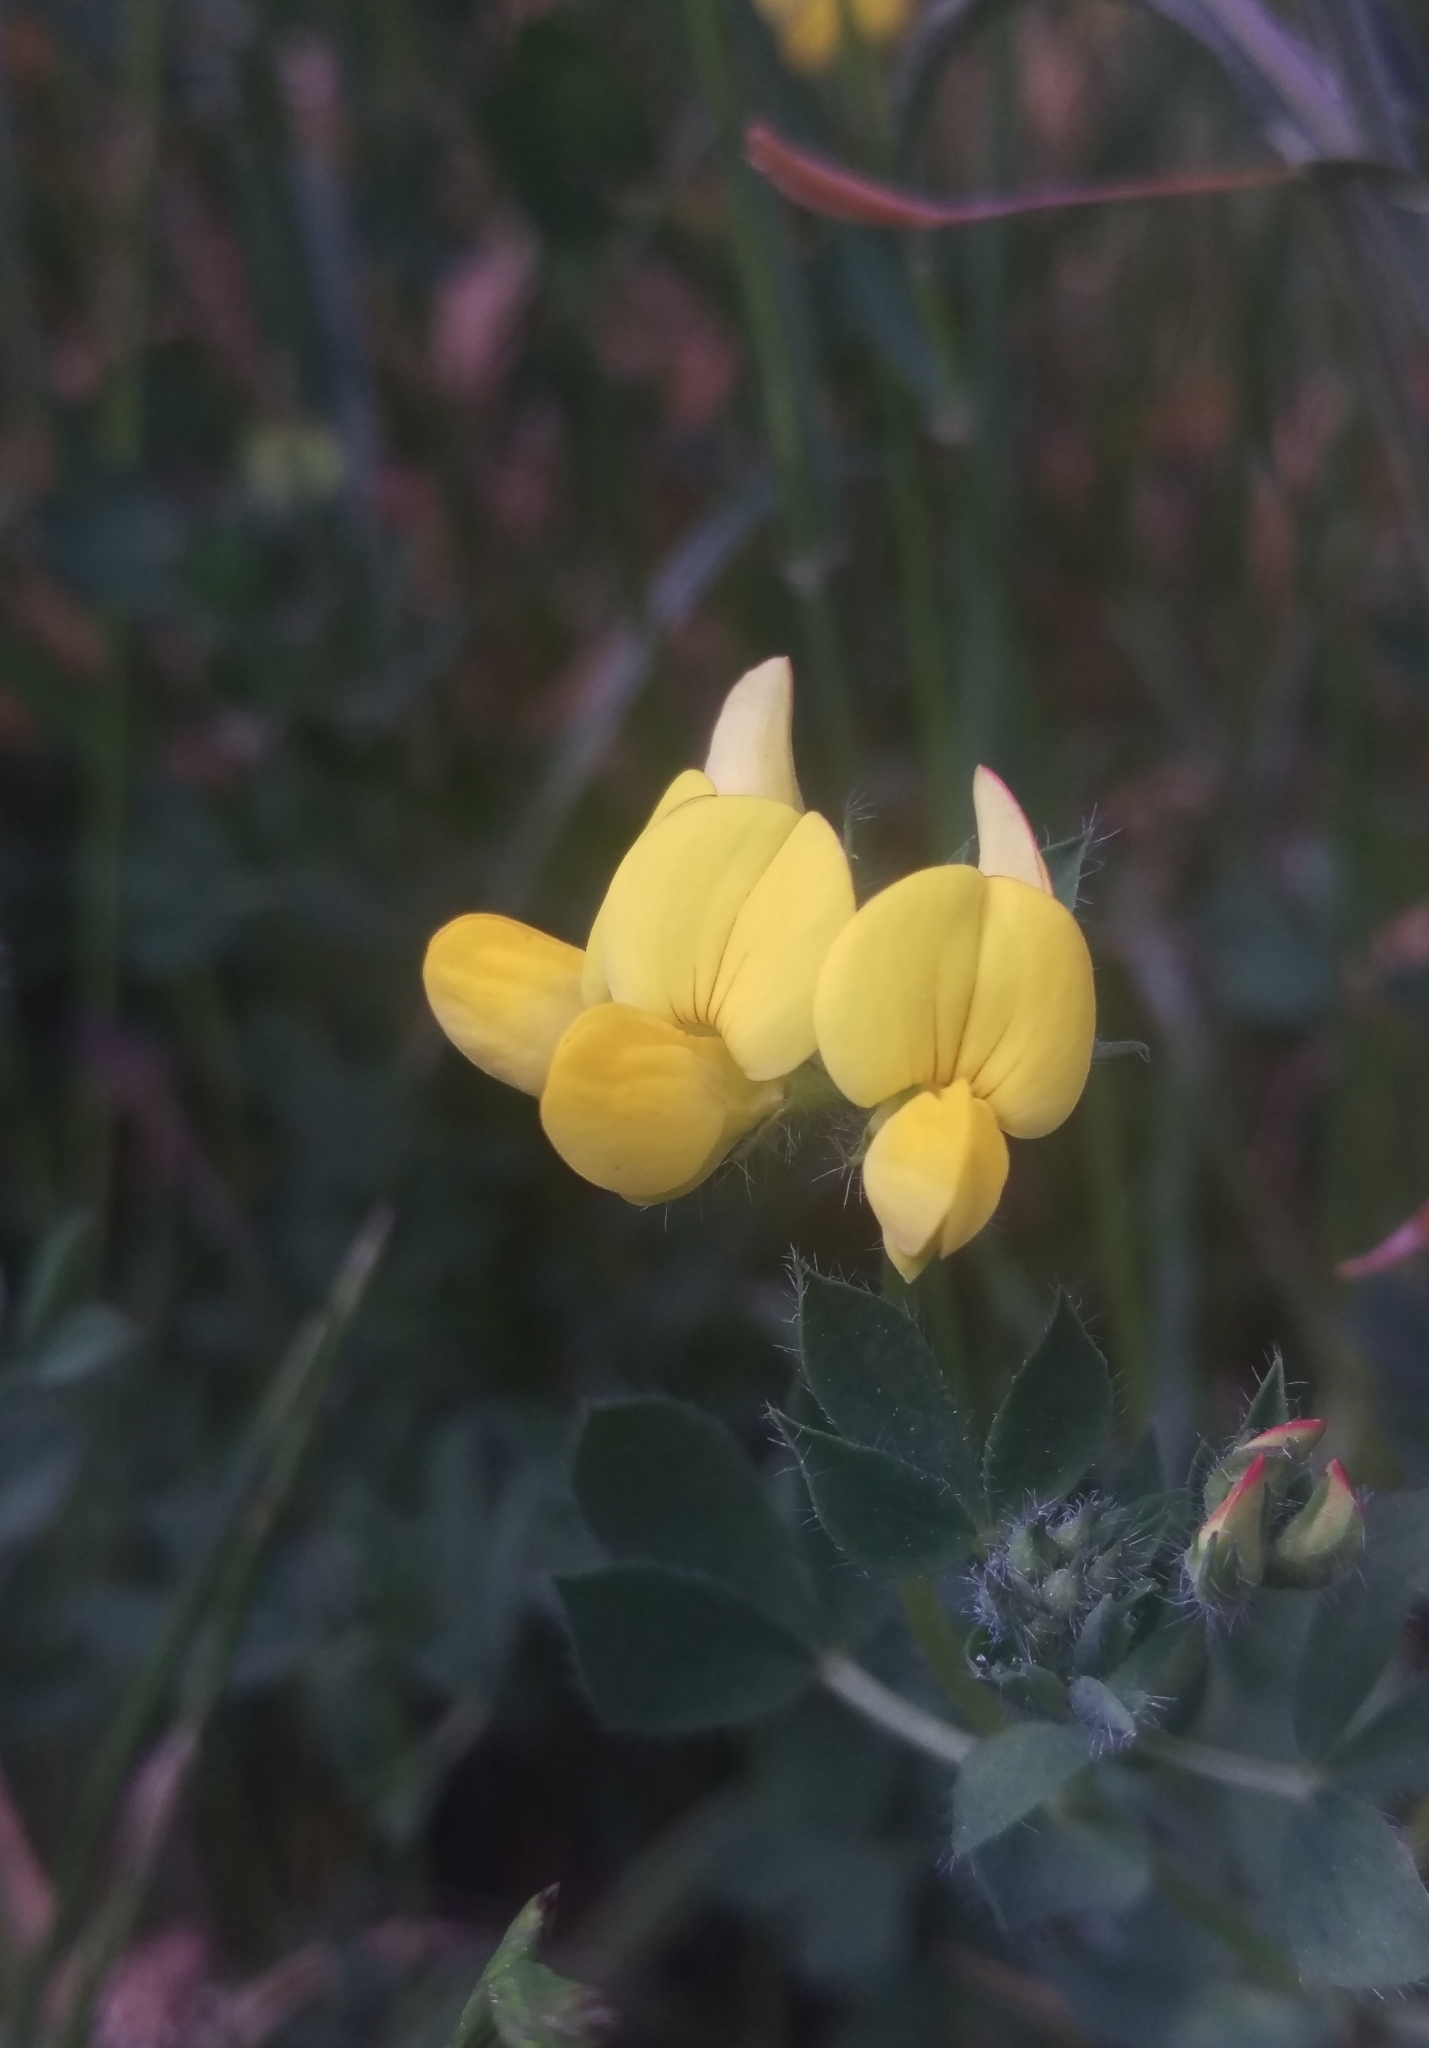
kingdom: Plantae
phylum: Tracheophyta
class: Magnoliopsida
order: Fabales
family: Fabaceae
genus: Lotus
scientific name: Lotus corniculatus
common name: Common bird's-foot-trefoil
